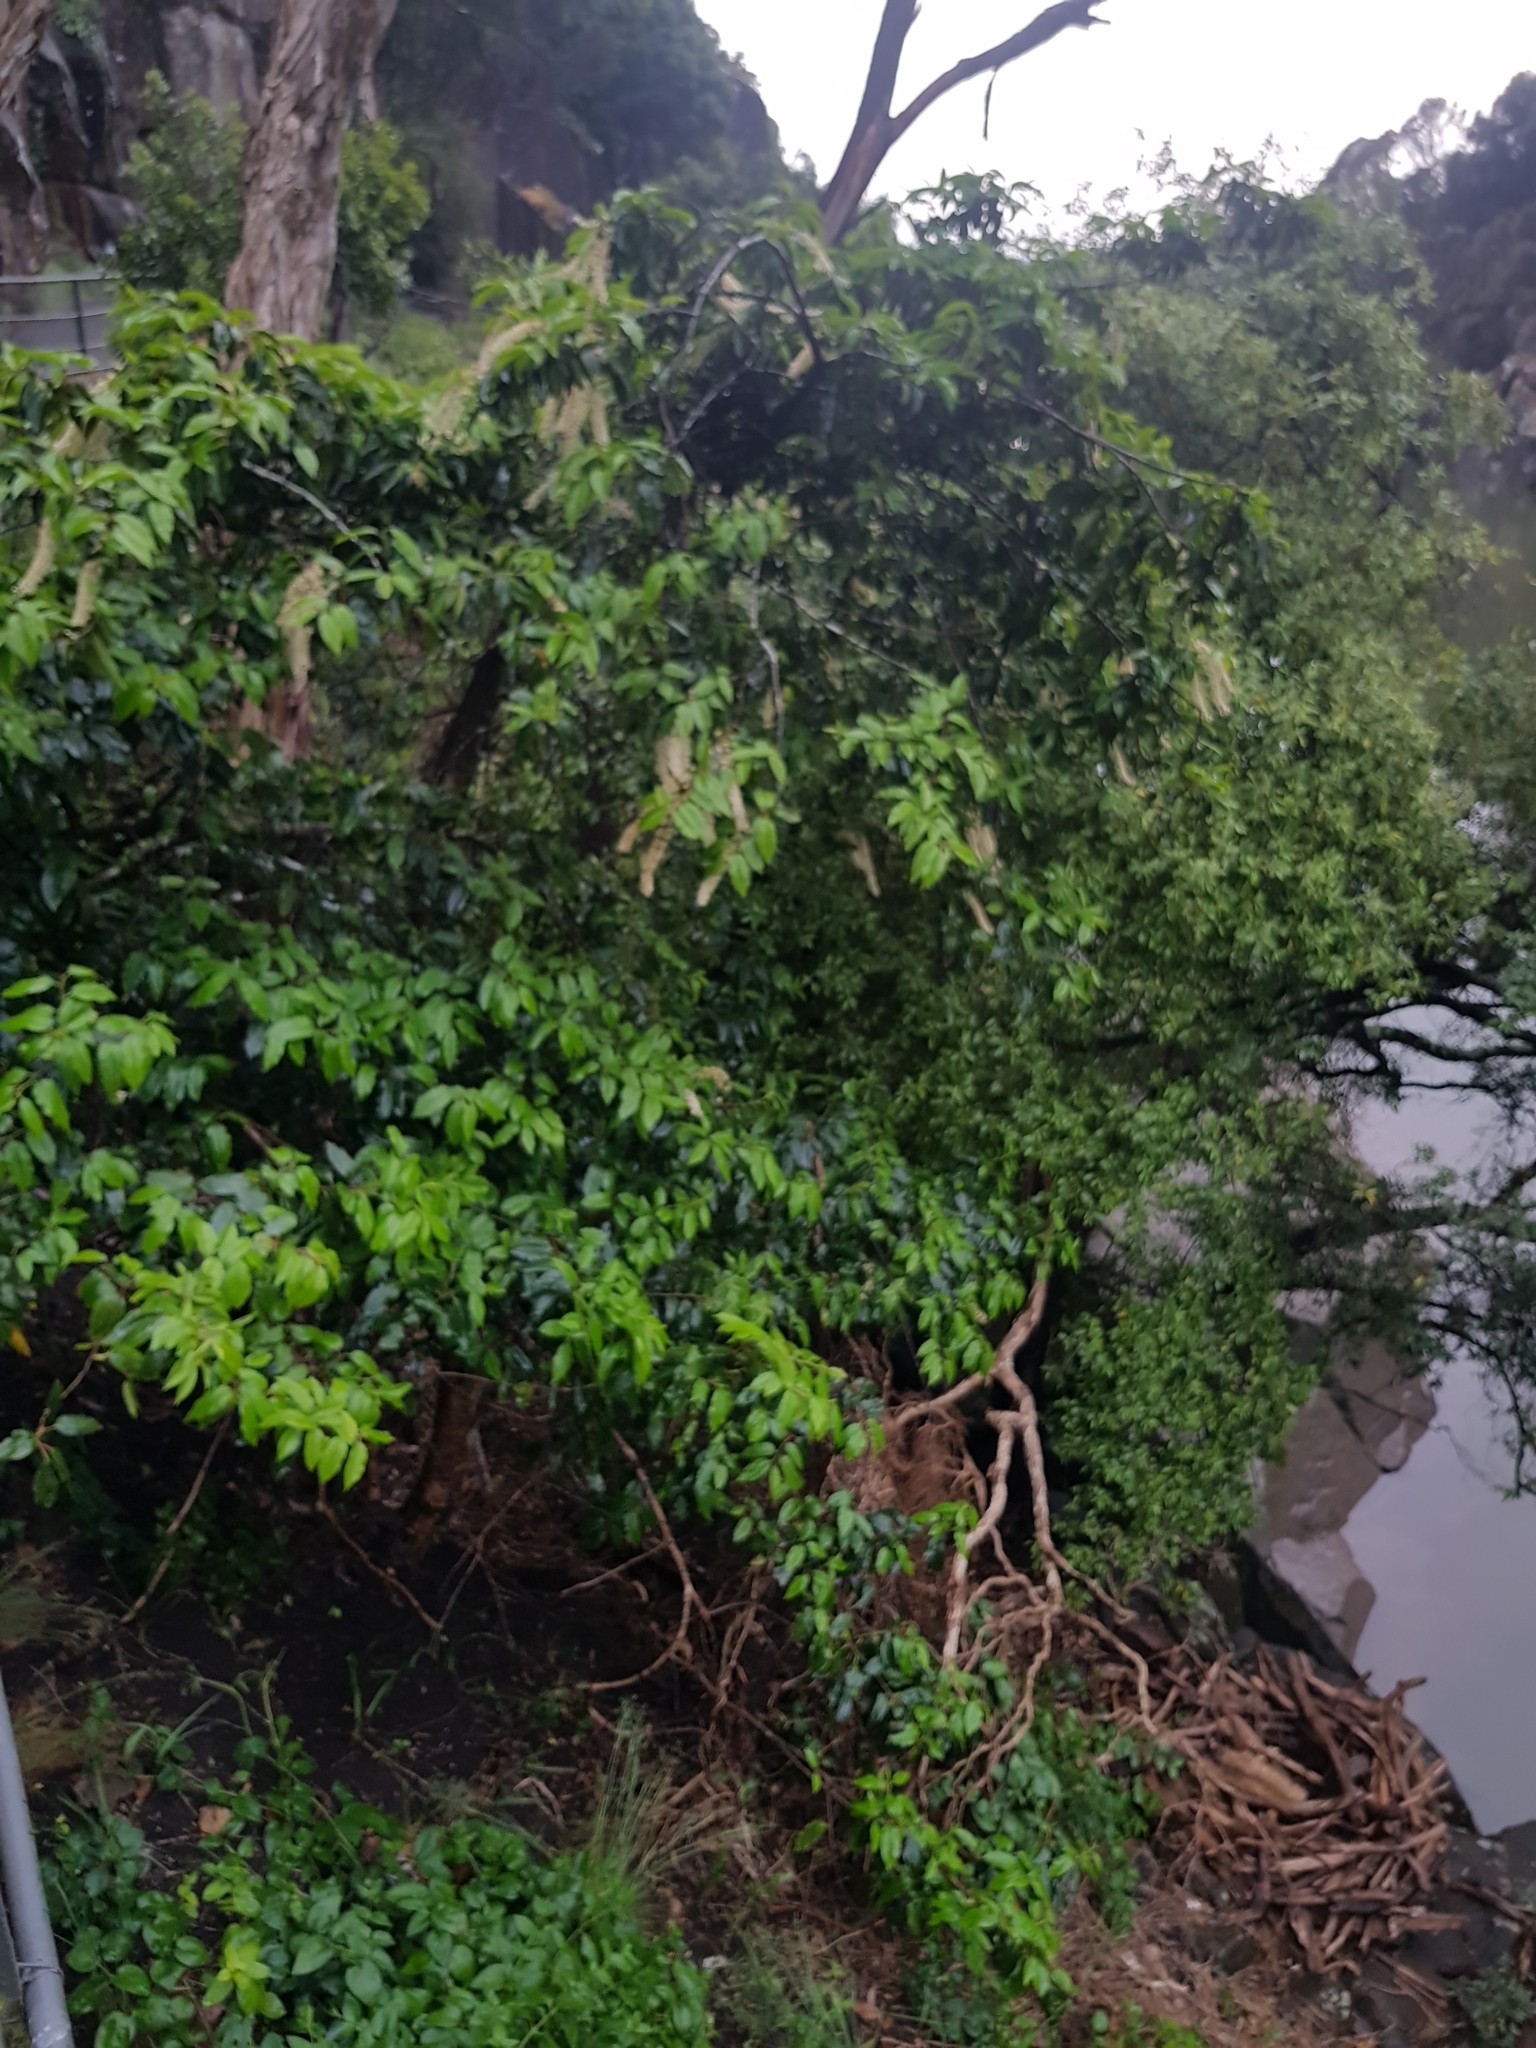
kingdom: Plantae
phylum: Tracheophyta
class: Magnoliopsida
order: Rosales
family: Rosaceae
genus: Prunus
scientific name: Prunus lusitanica
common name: Portugal laurel
